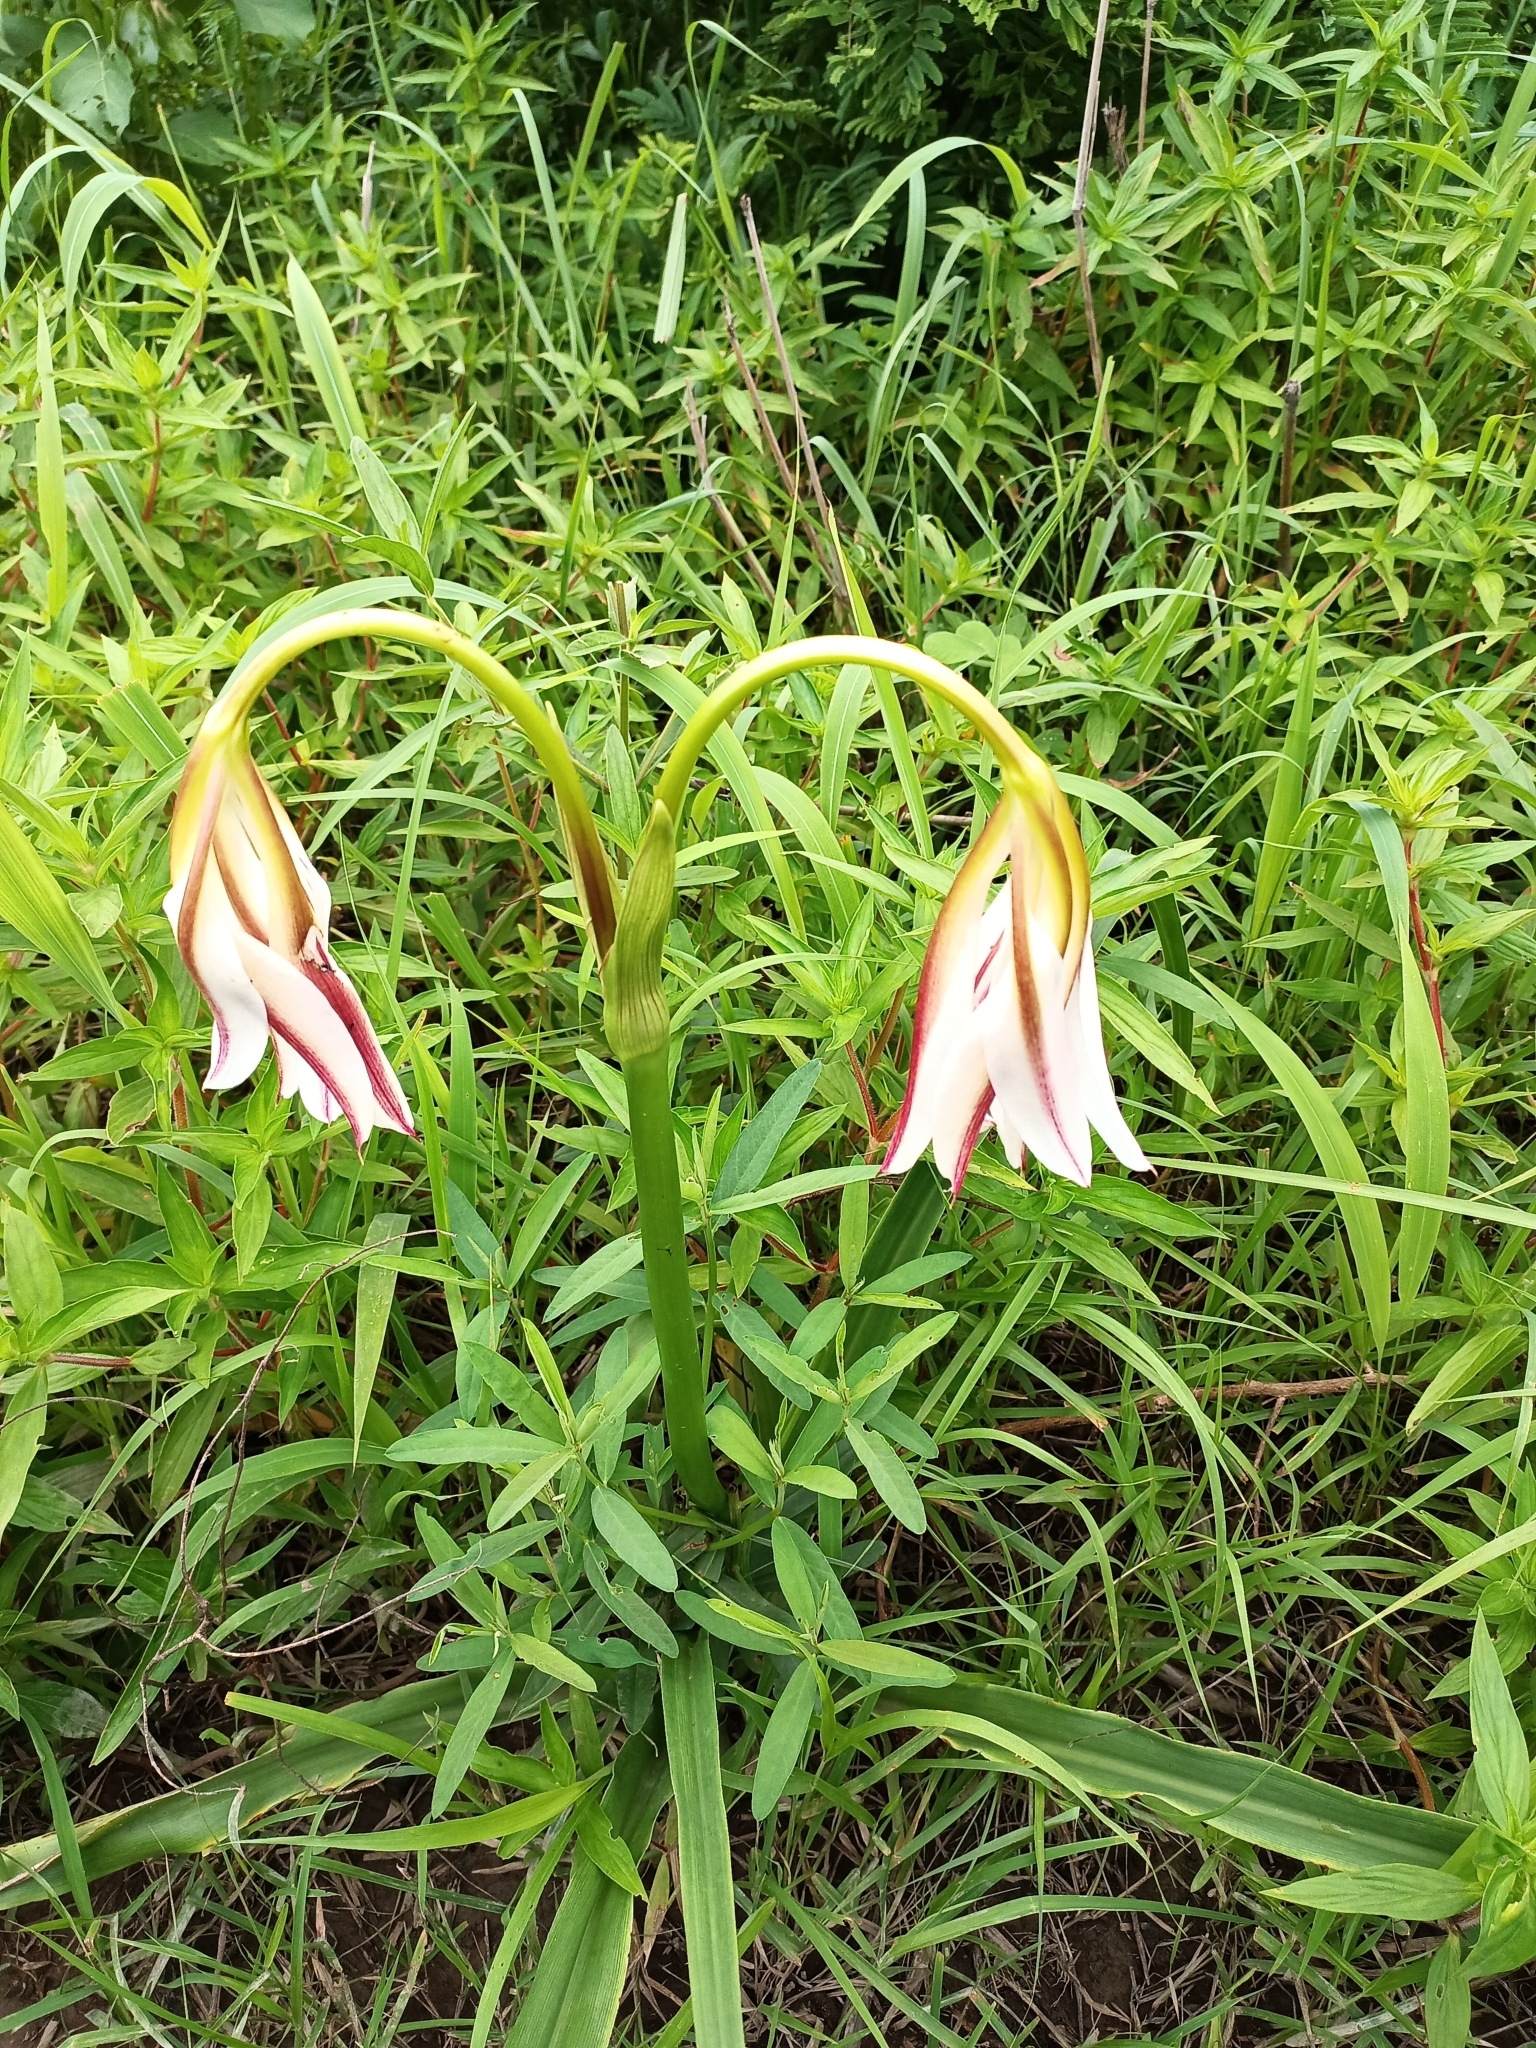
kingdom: Plantae
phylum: Tracheophyta
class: Liliopsida
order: Asparagales
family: Amaryllidaceae
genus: Crinum
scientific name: Crinum ornatum
